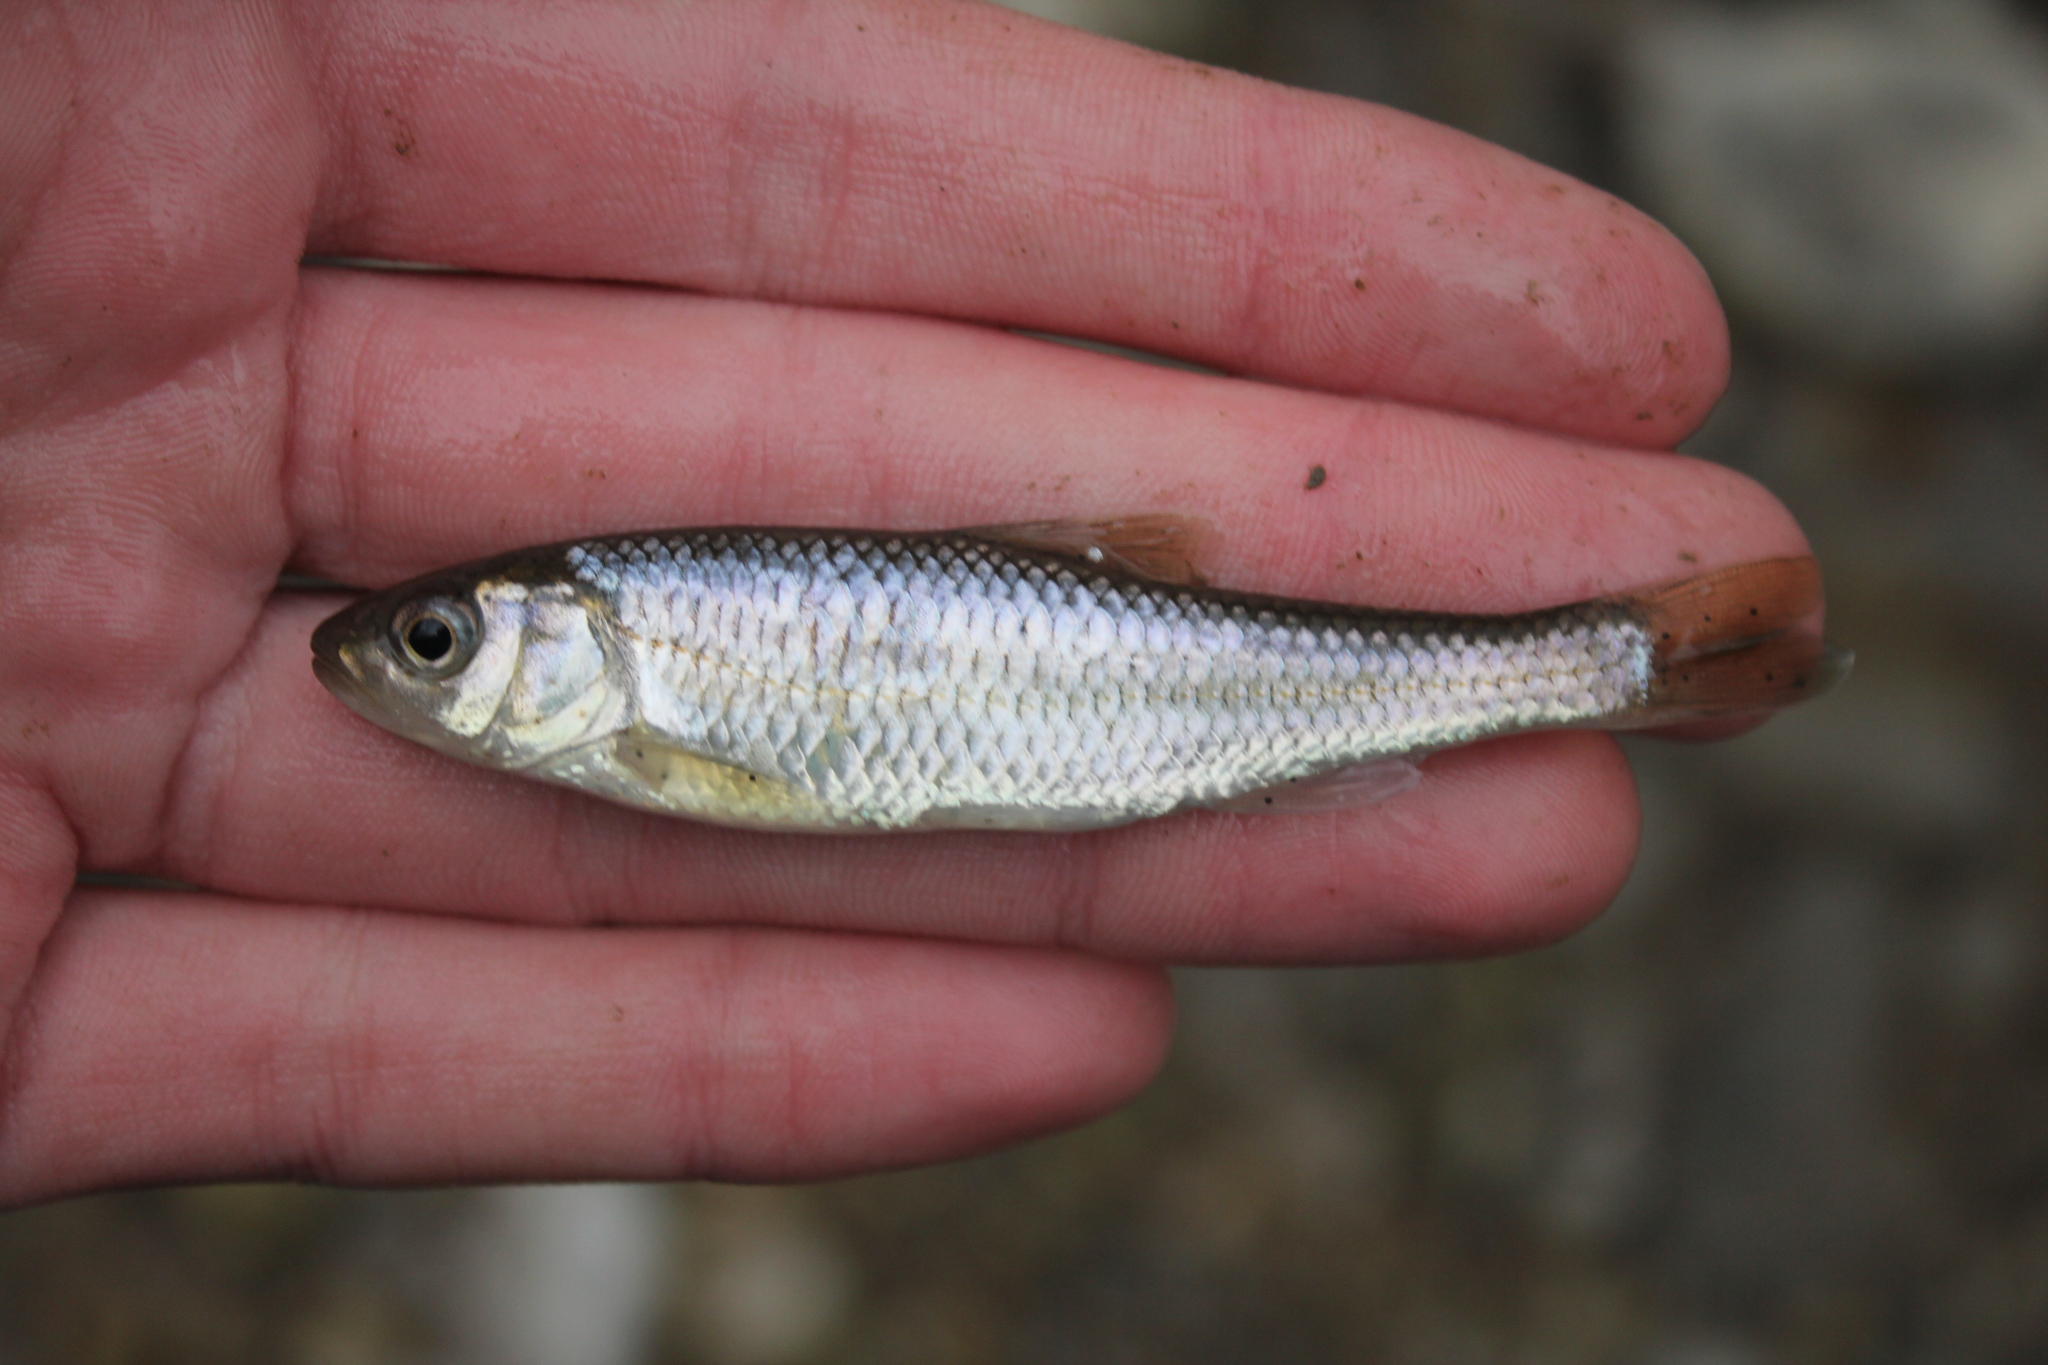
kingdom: Animalia
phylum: Chordata
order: Cypriniformes
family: Cyprinidae
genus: Luxilus
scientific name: Luxilus chrysocephalus
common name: Striped shiner
